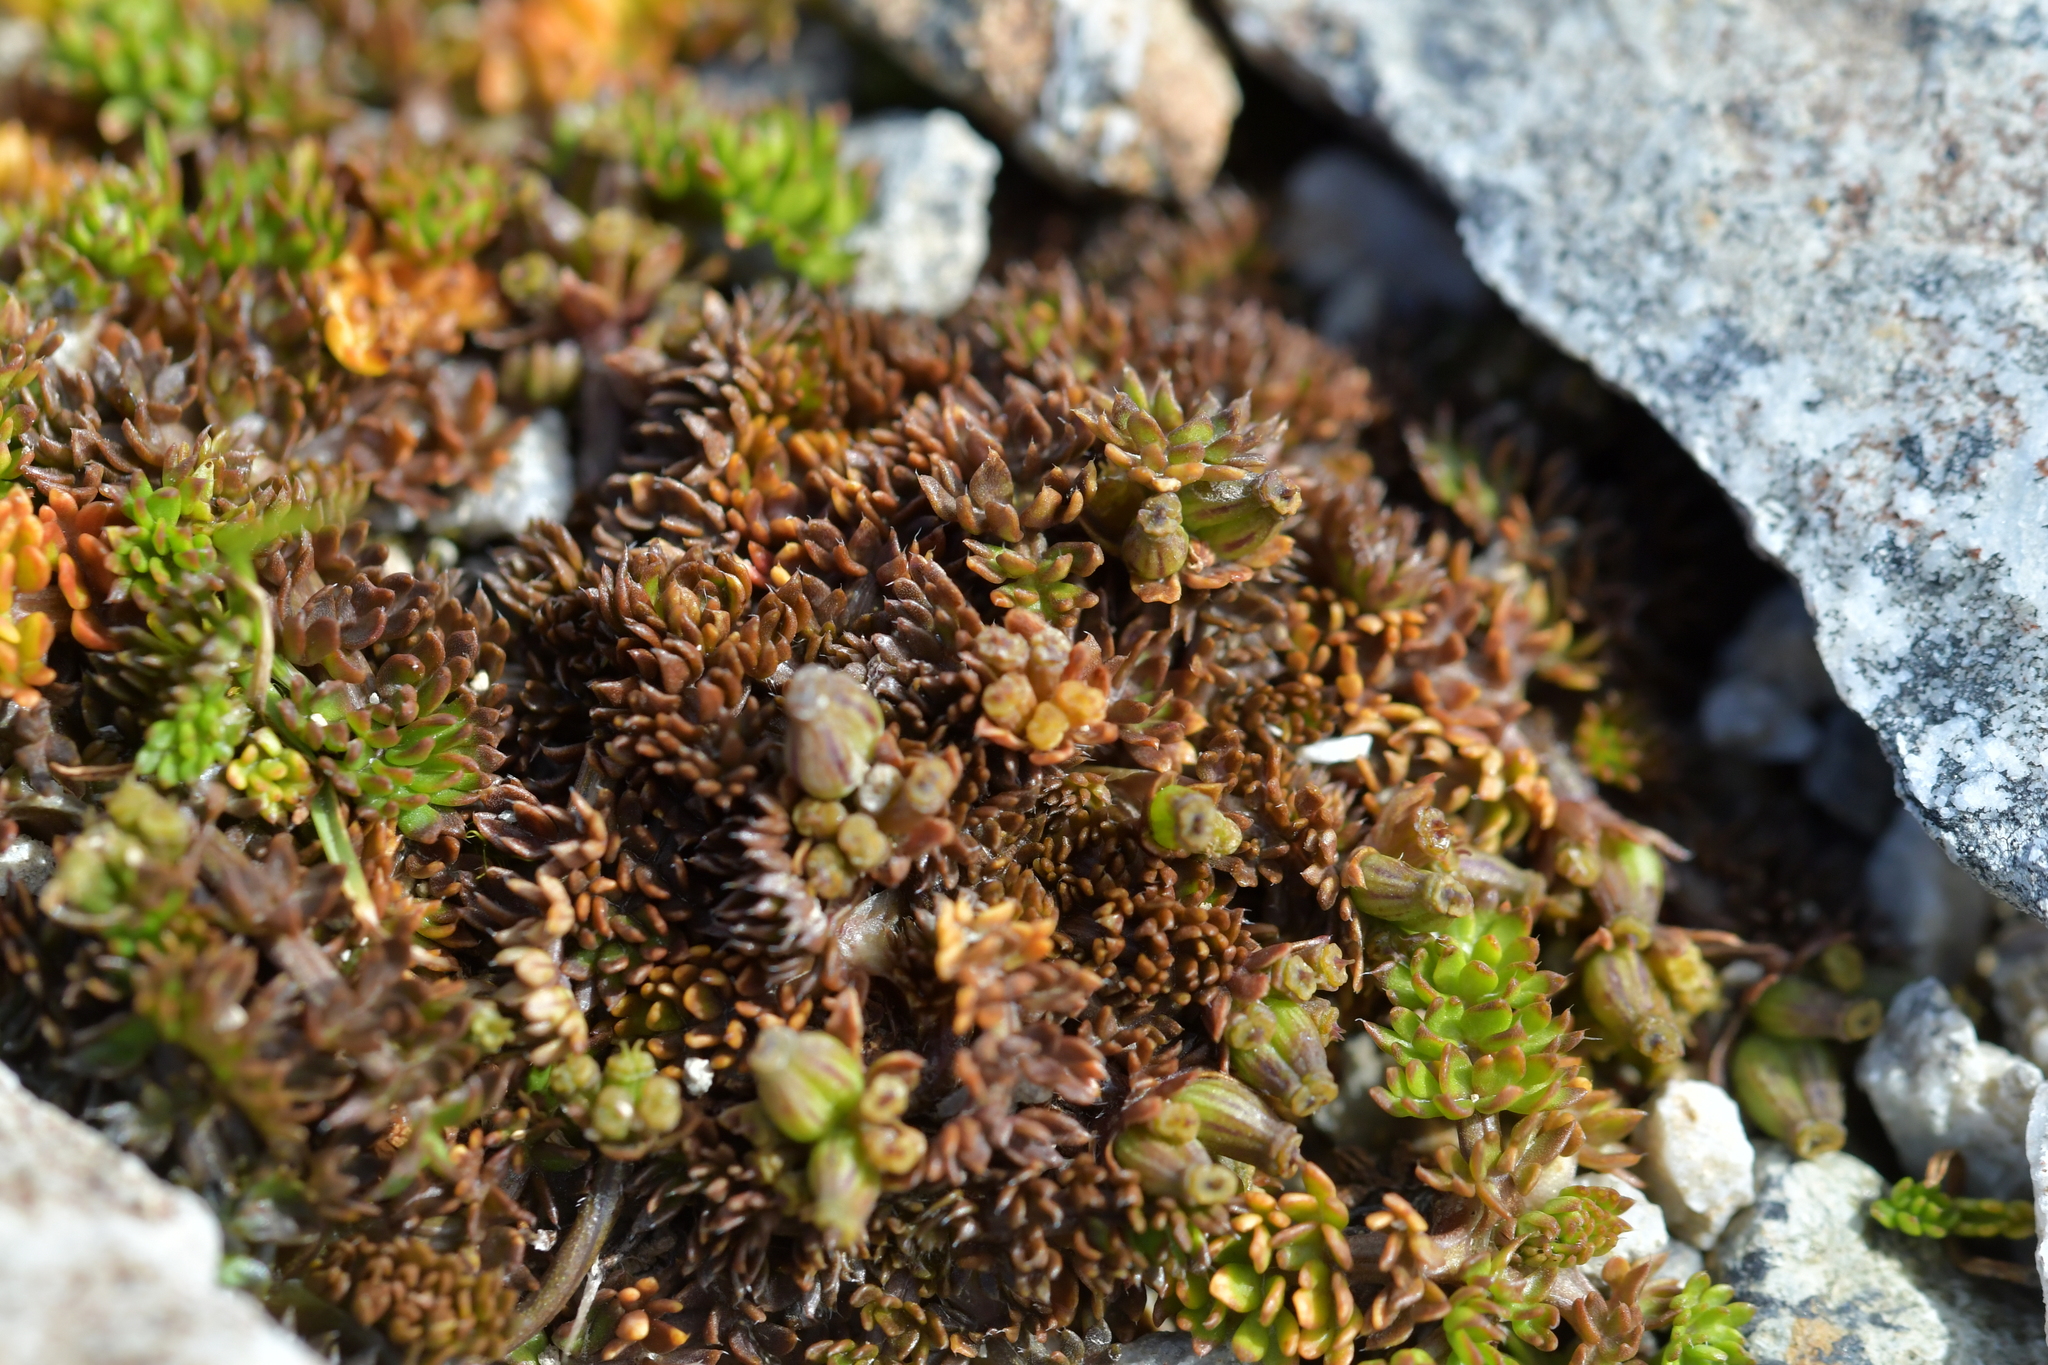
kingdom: Plantae
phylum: Tracheophyta
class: Magnoliopsida
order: Apiales
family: Apiaceae
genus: Chaerophyllum
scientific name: Chaerophyllum colensoi
